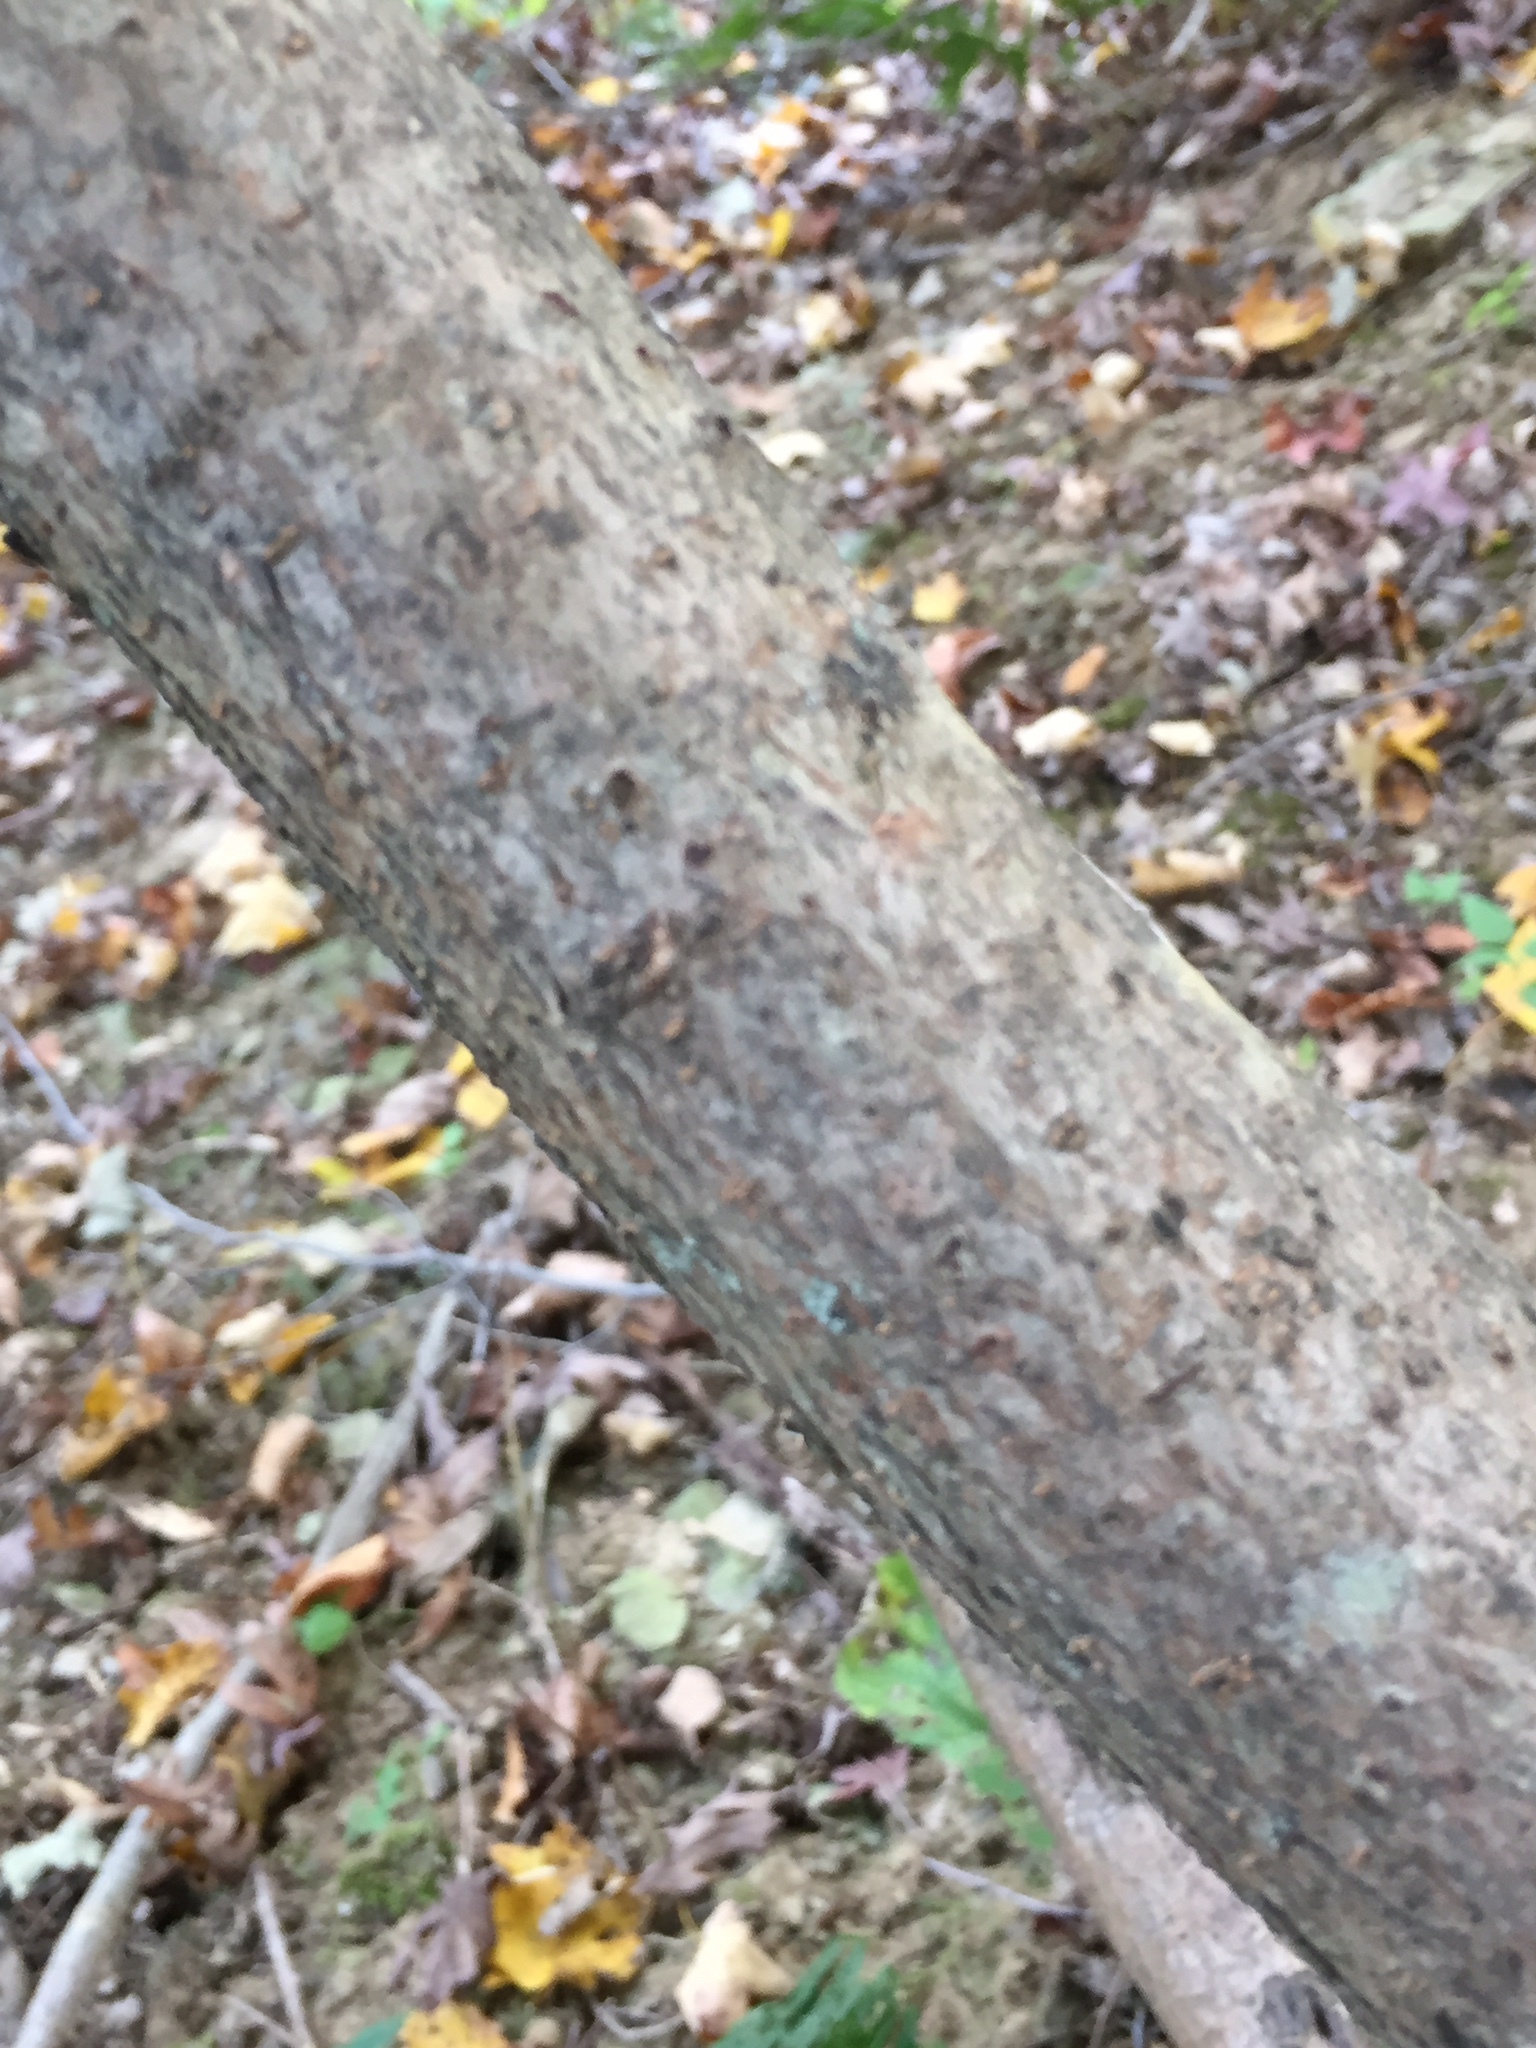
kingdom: Plantae
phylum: Tracheophyta
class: Magnoliopsida
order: Saxifragales
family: Hamamelidaceae
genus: Hamamelis
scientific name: Hamamelis virginiana
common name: Witch-hazel
